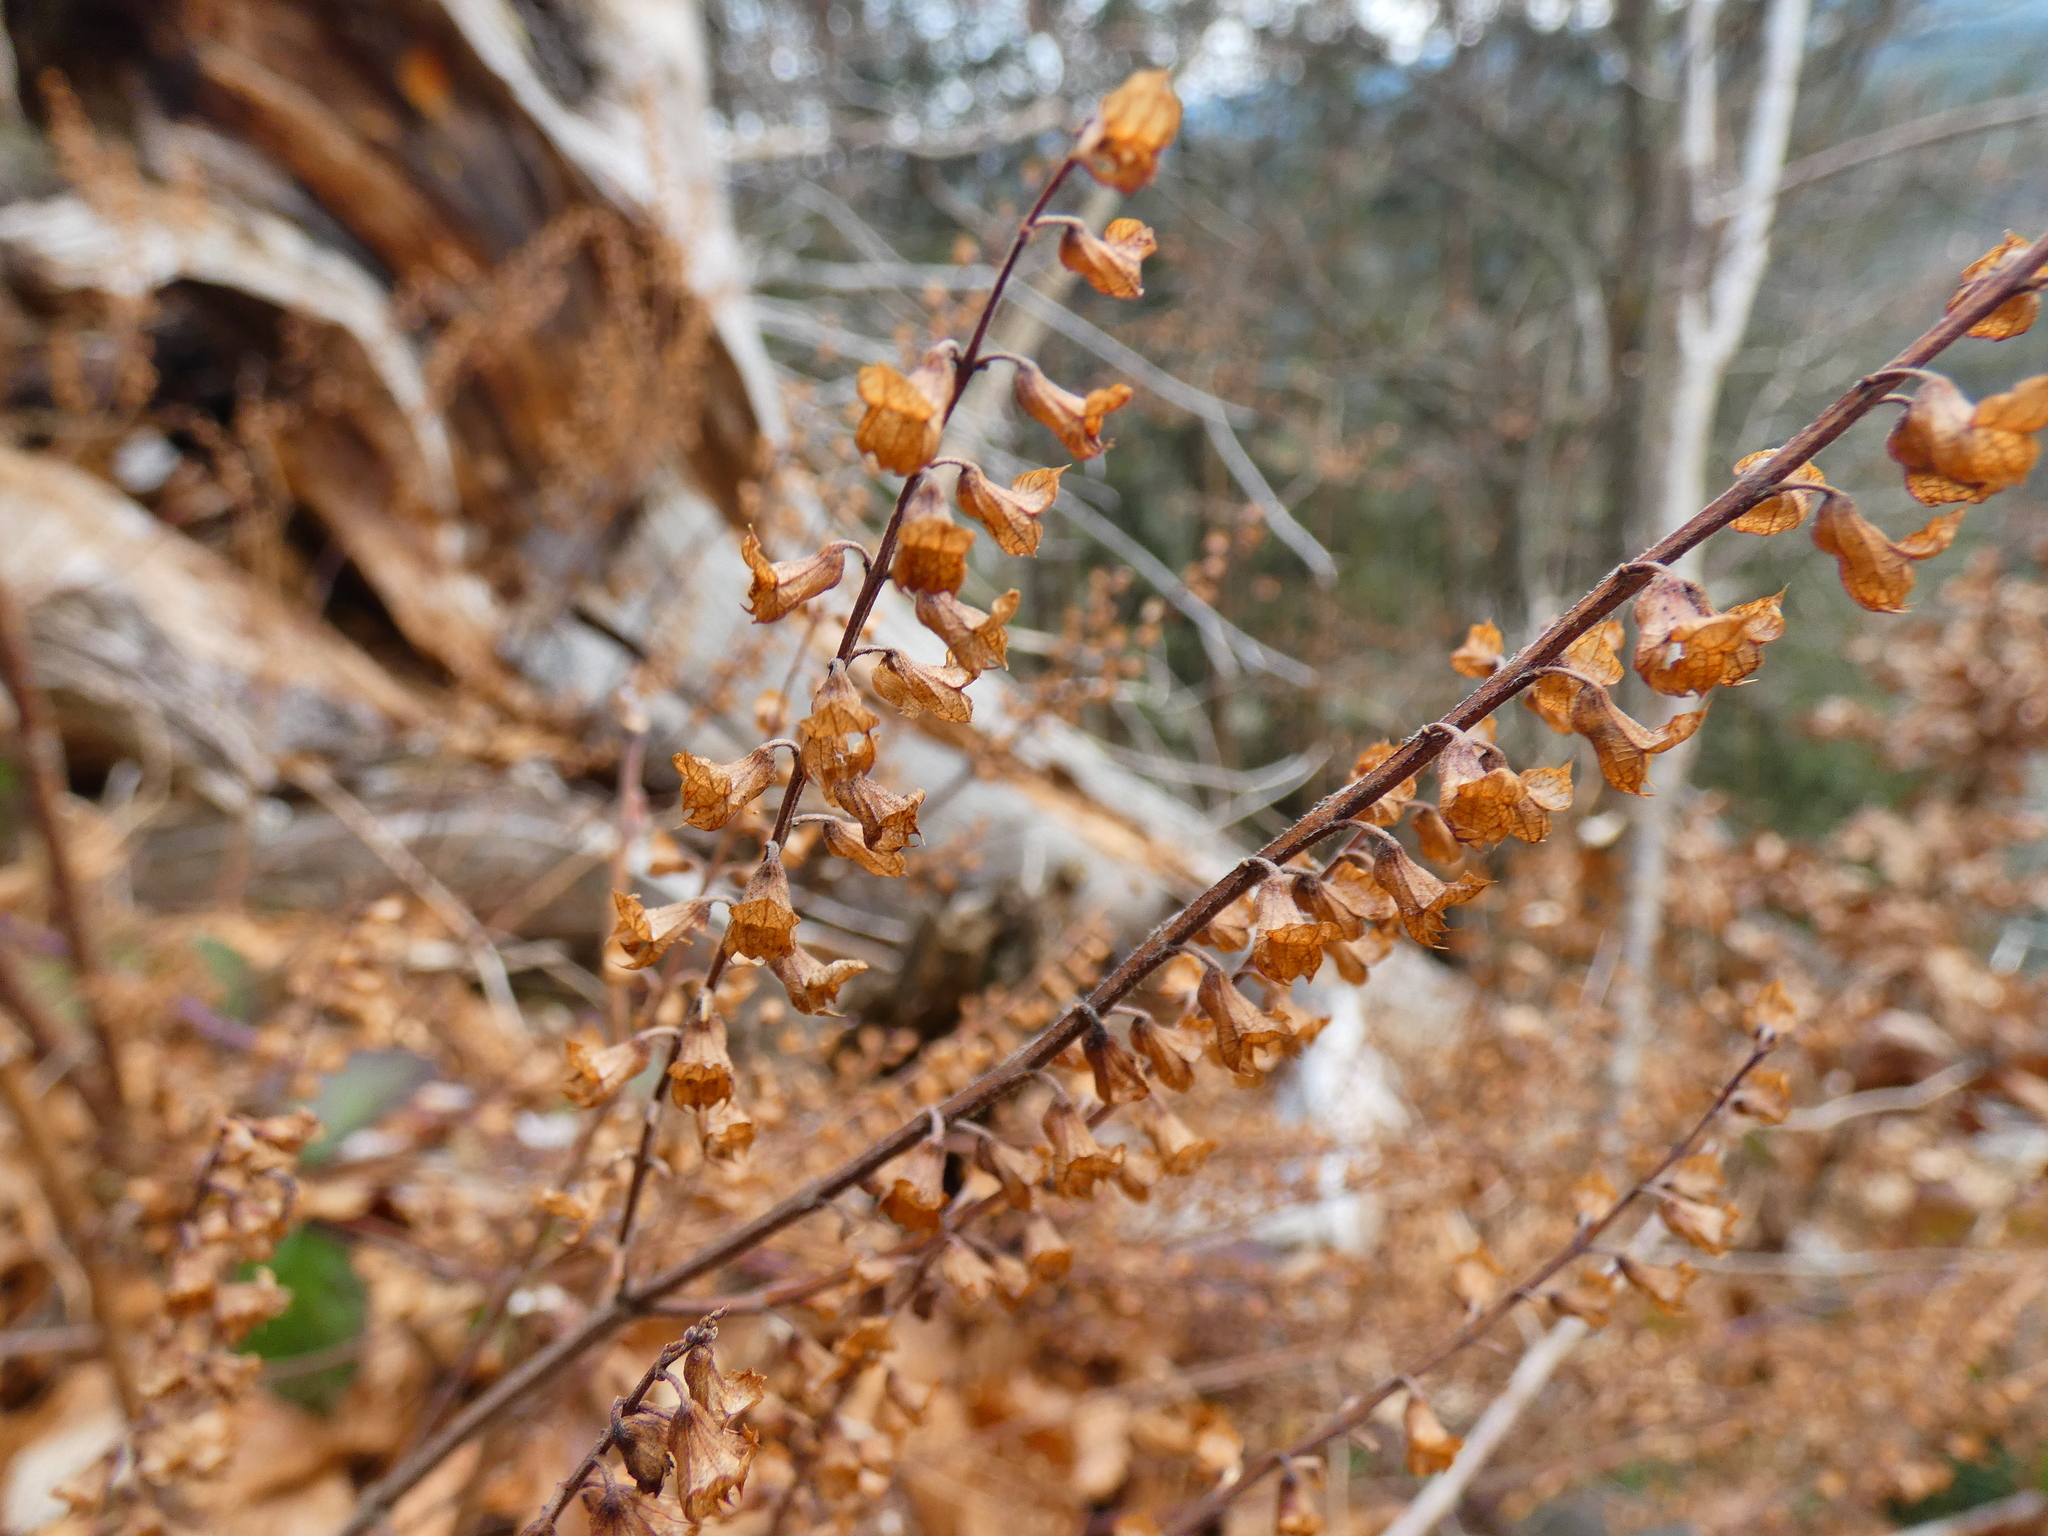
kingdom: Plantae
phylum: Tracheophyta
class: Magnoliopsida
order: Lamiales
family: Lamiaceae
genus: Teucrium
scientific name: Teucrium scorodonia
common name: Woodland germander
